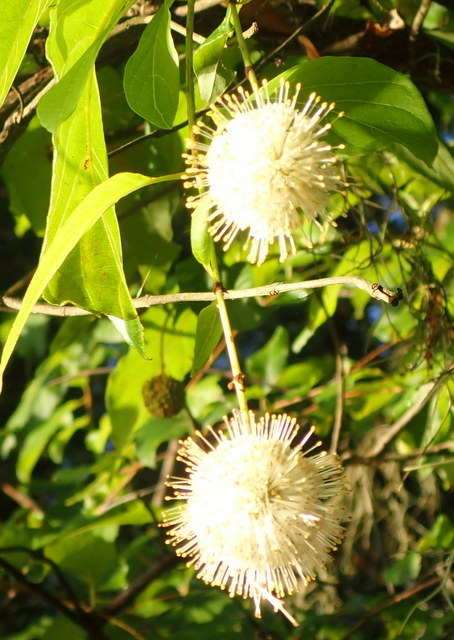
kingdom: Plantae
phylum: Tracheophyta
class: Magnoliopsida
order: Gentianales
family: Rubiaceae
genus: Cephalanthus
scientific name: Cephalanthus occidentalis
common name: Button-willow
